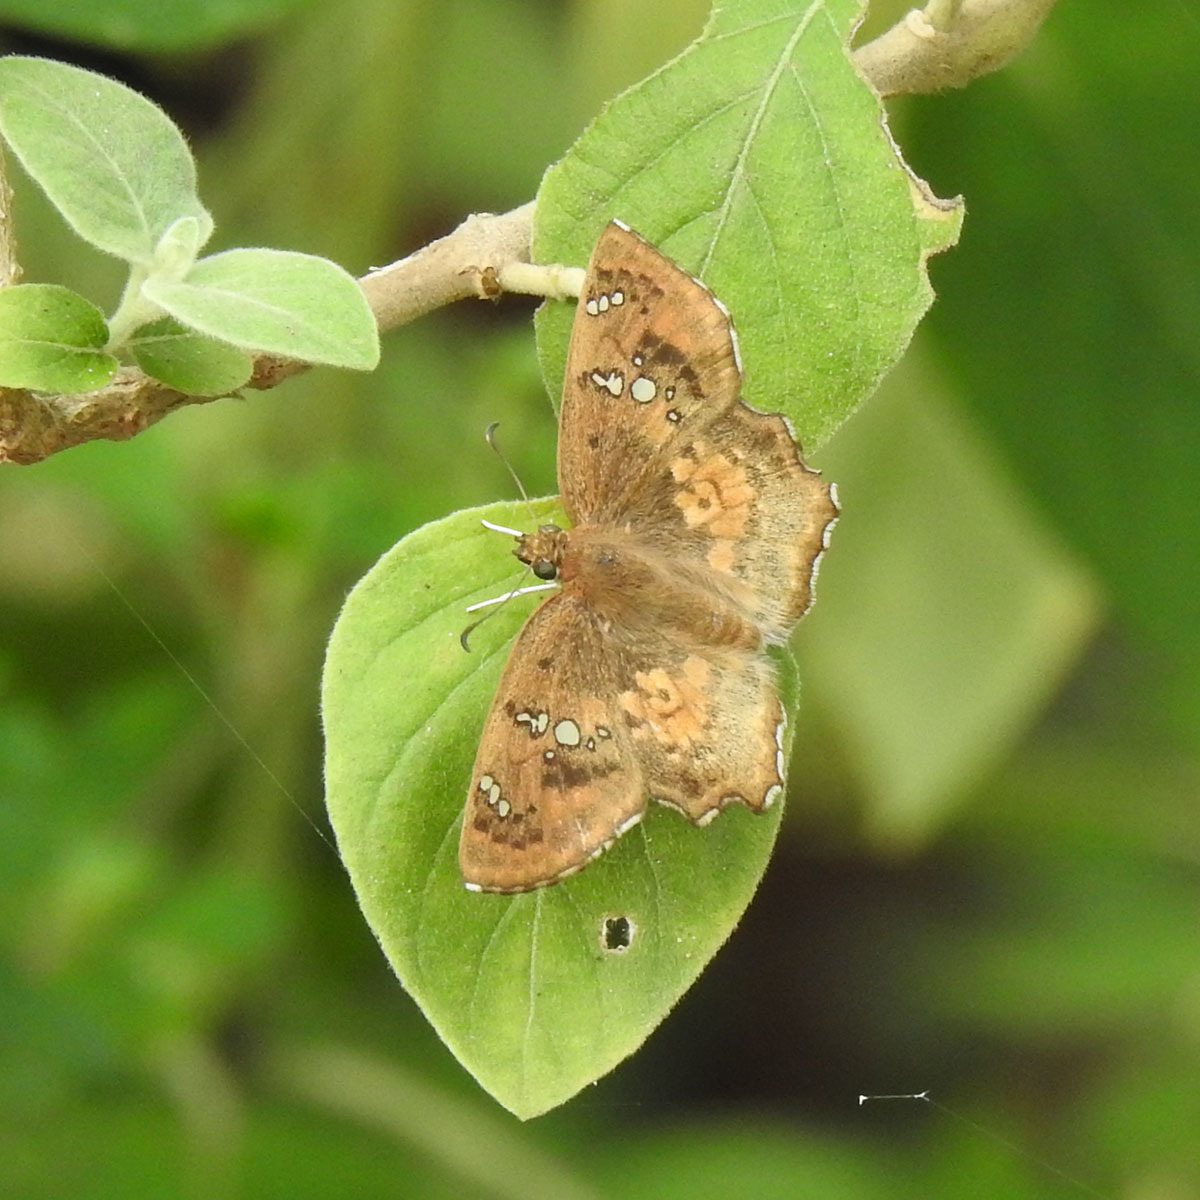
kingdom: Animalia
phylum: Arthropoda
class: Insecta
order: Lepidoptera
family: Hesperiidae
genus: Caprona
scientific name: Caprona ransonnettii
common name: Golden angle
